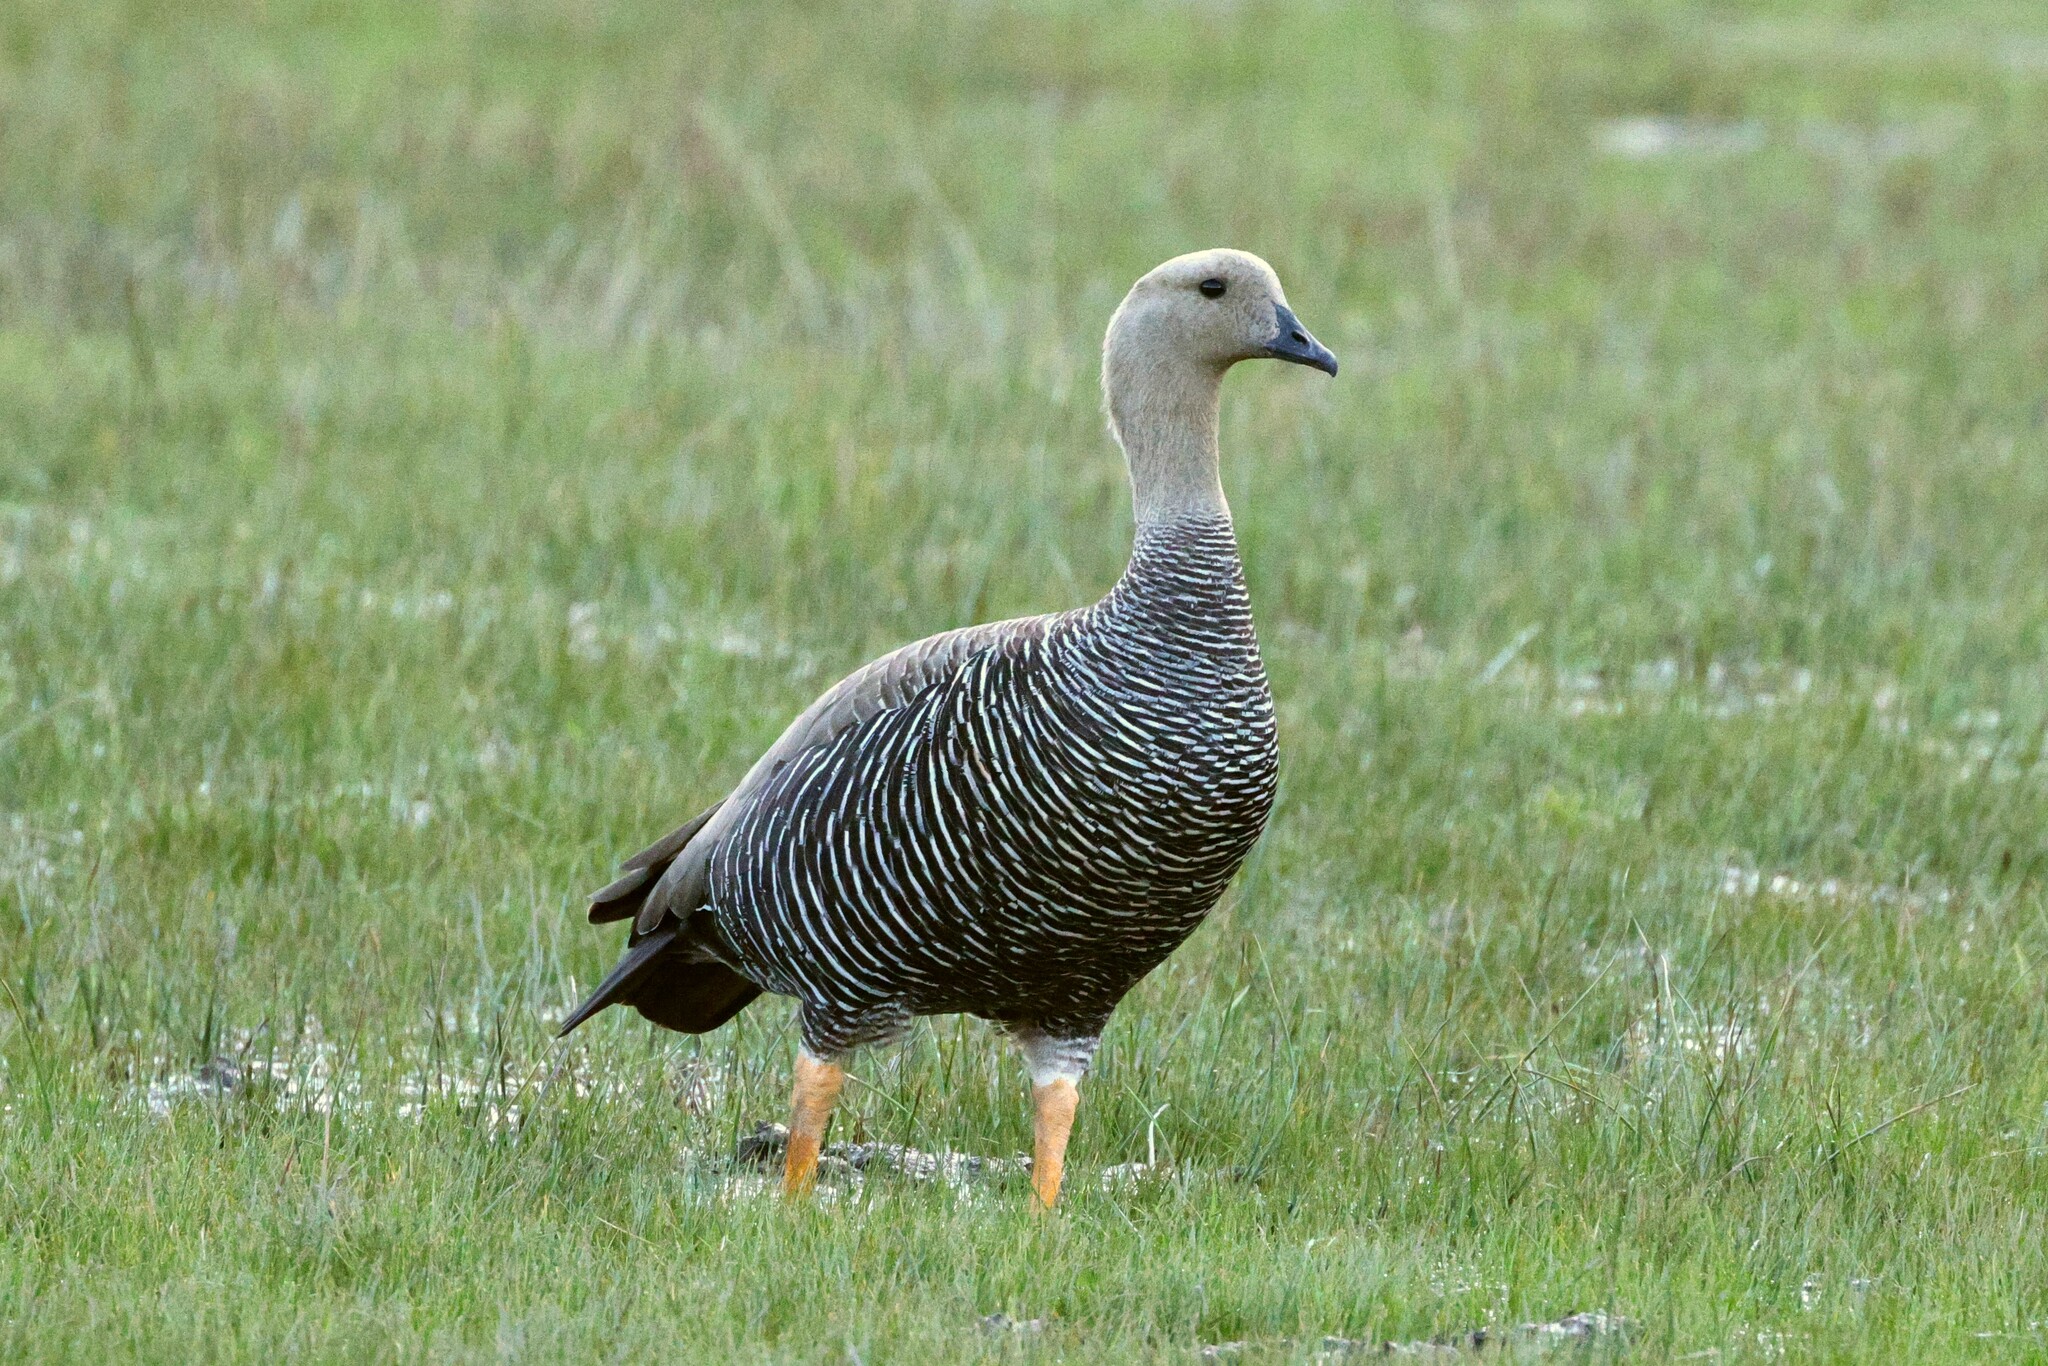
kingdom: Animalia
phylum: Chordata
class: Aves
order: Anseriformes
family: Anatidae
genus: Chloephaga
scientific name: Chloephaga picta
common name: Upland goose
